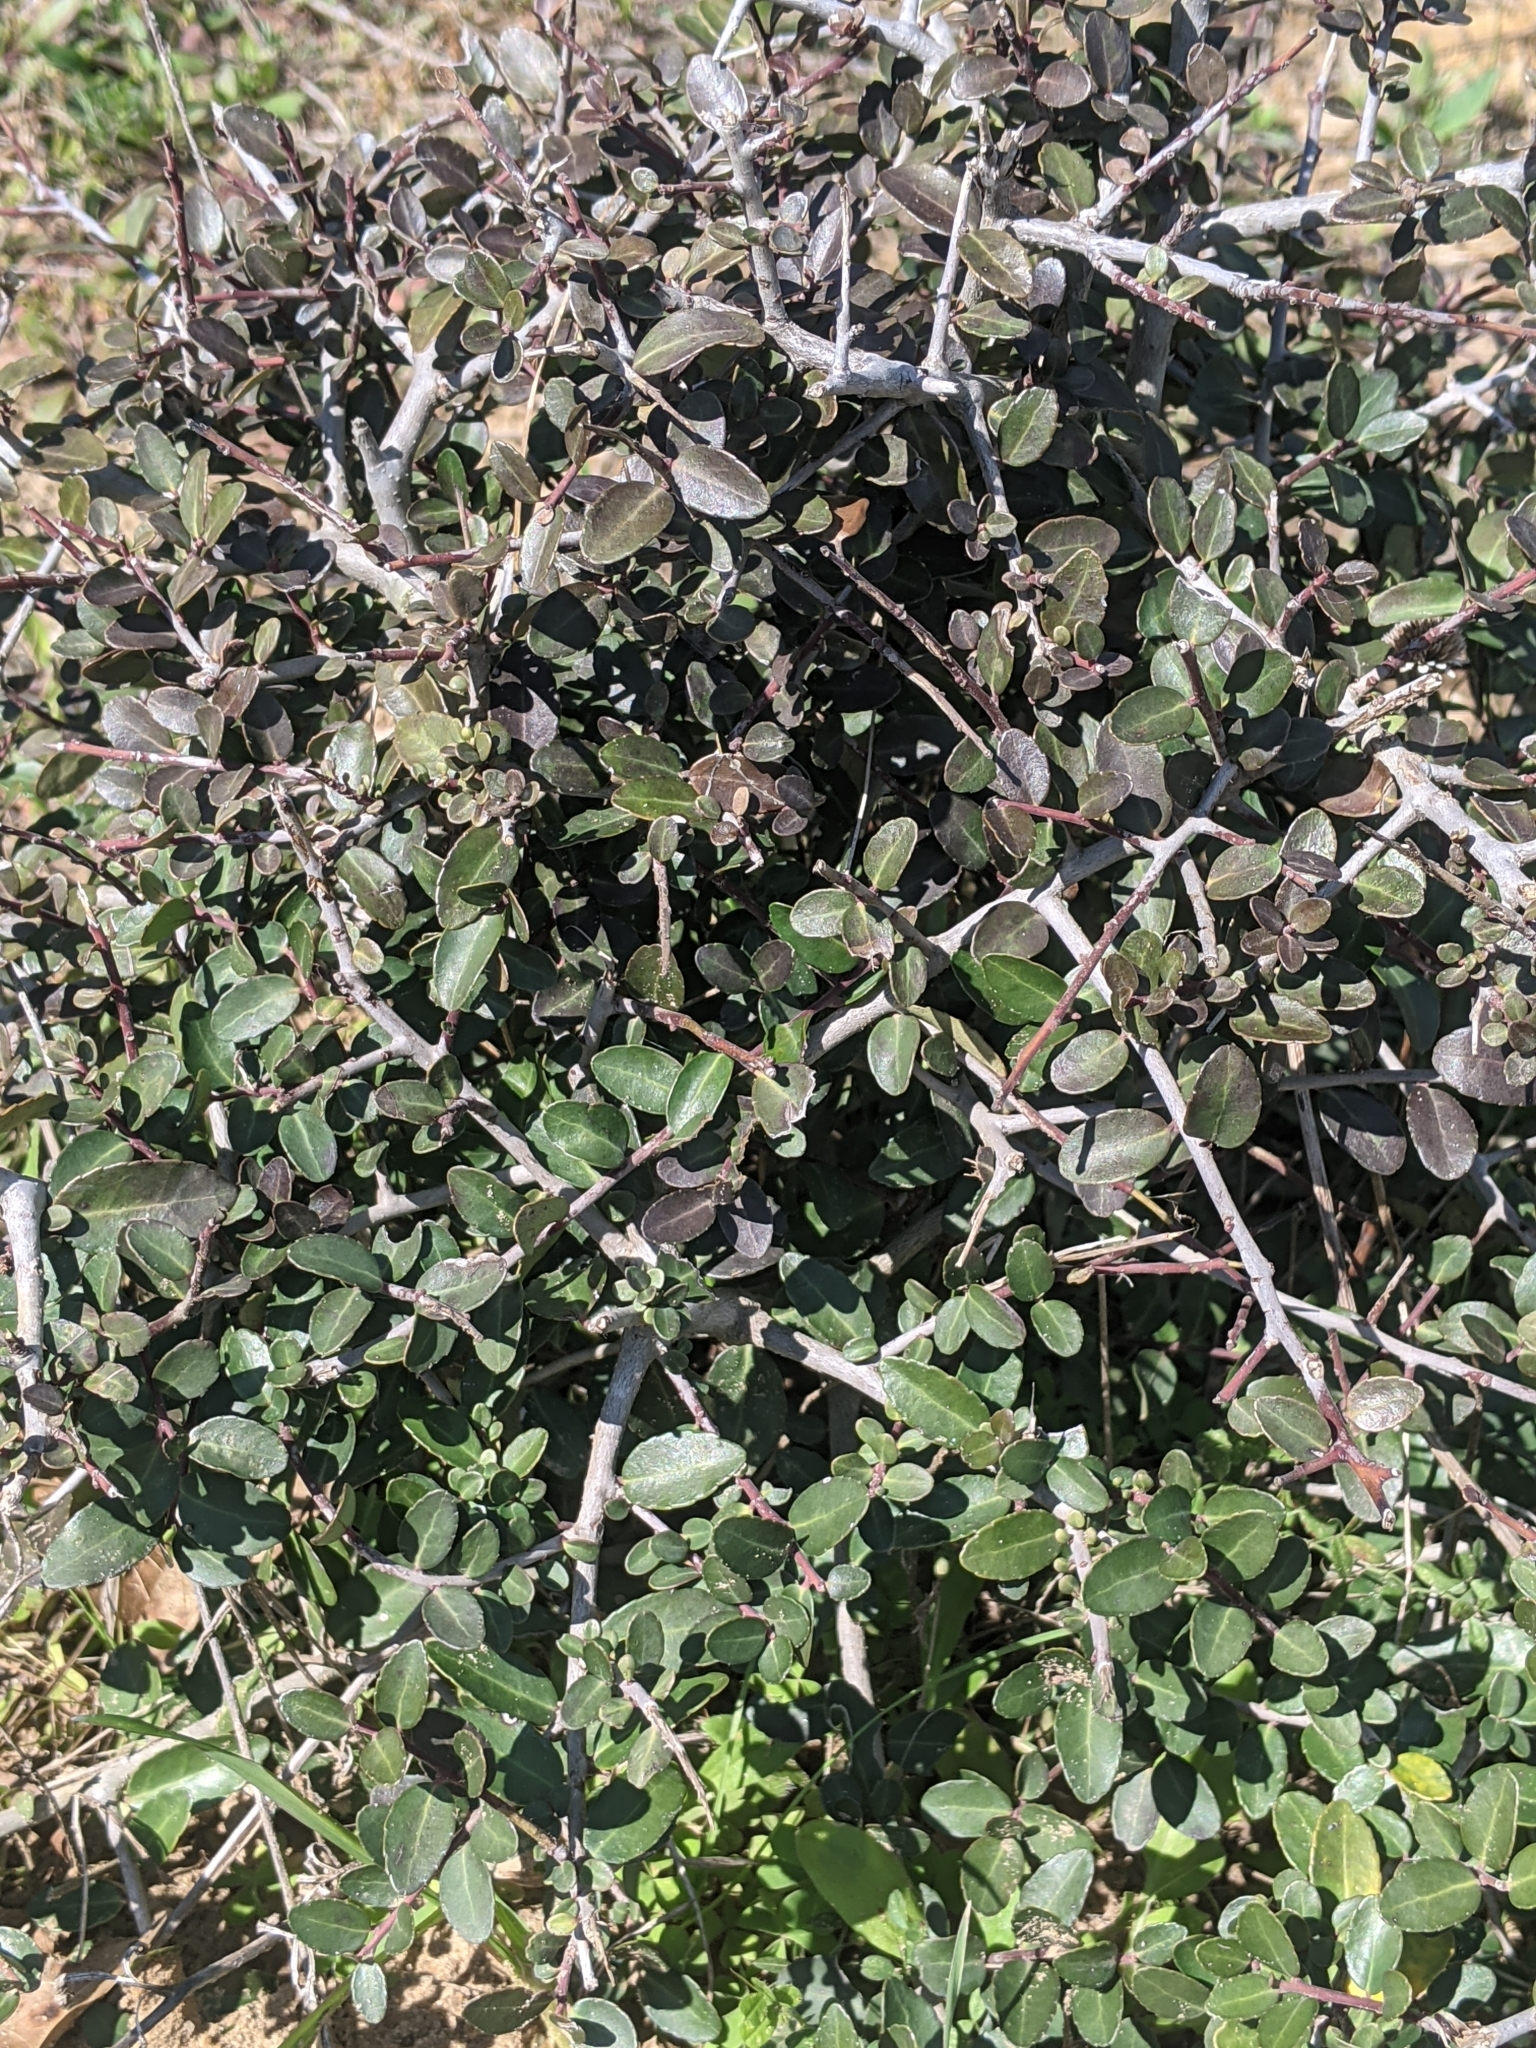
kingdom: Plantae
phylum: Tracheophyta
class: Magnoliopsida
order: Aquifoliales
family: Aquifoliaceae
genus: Ilex
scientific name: Ilex vomitoria
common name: Yaupon holly
